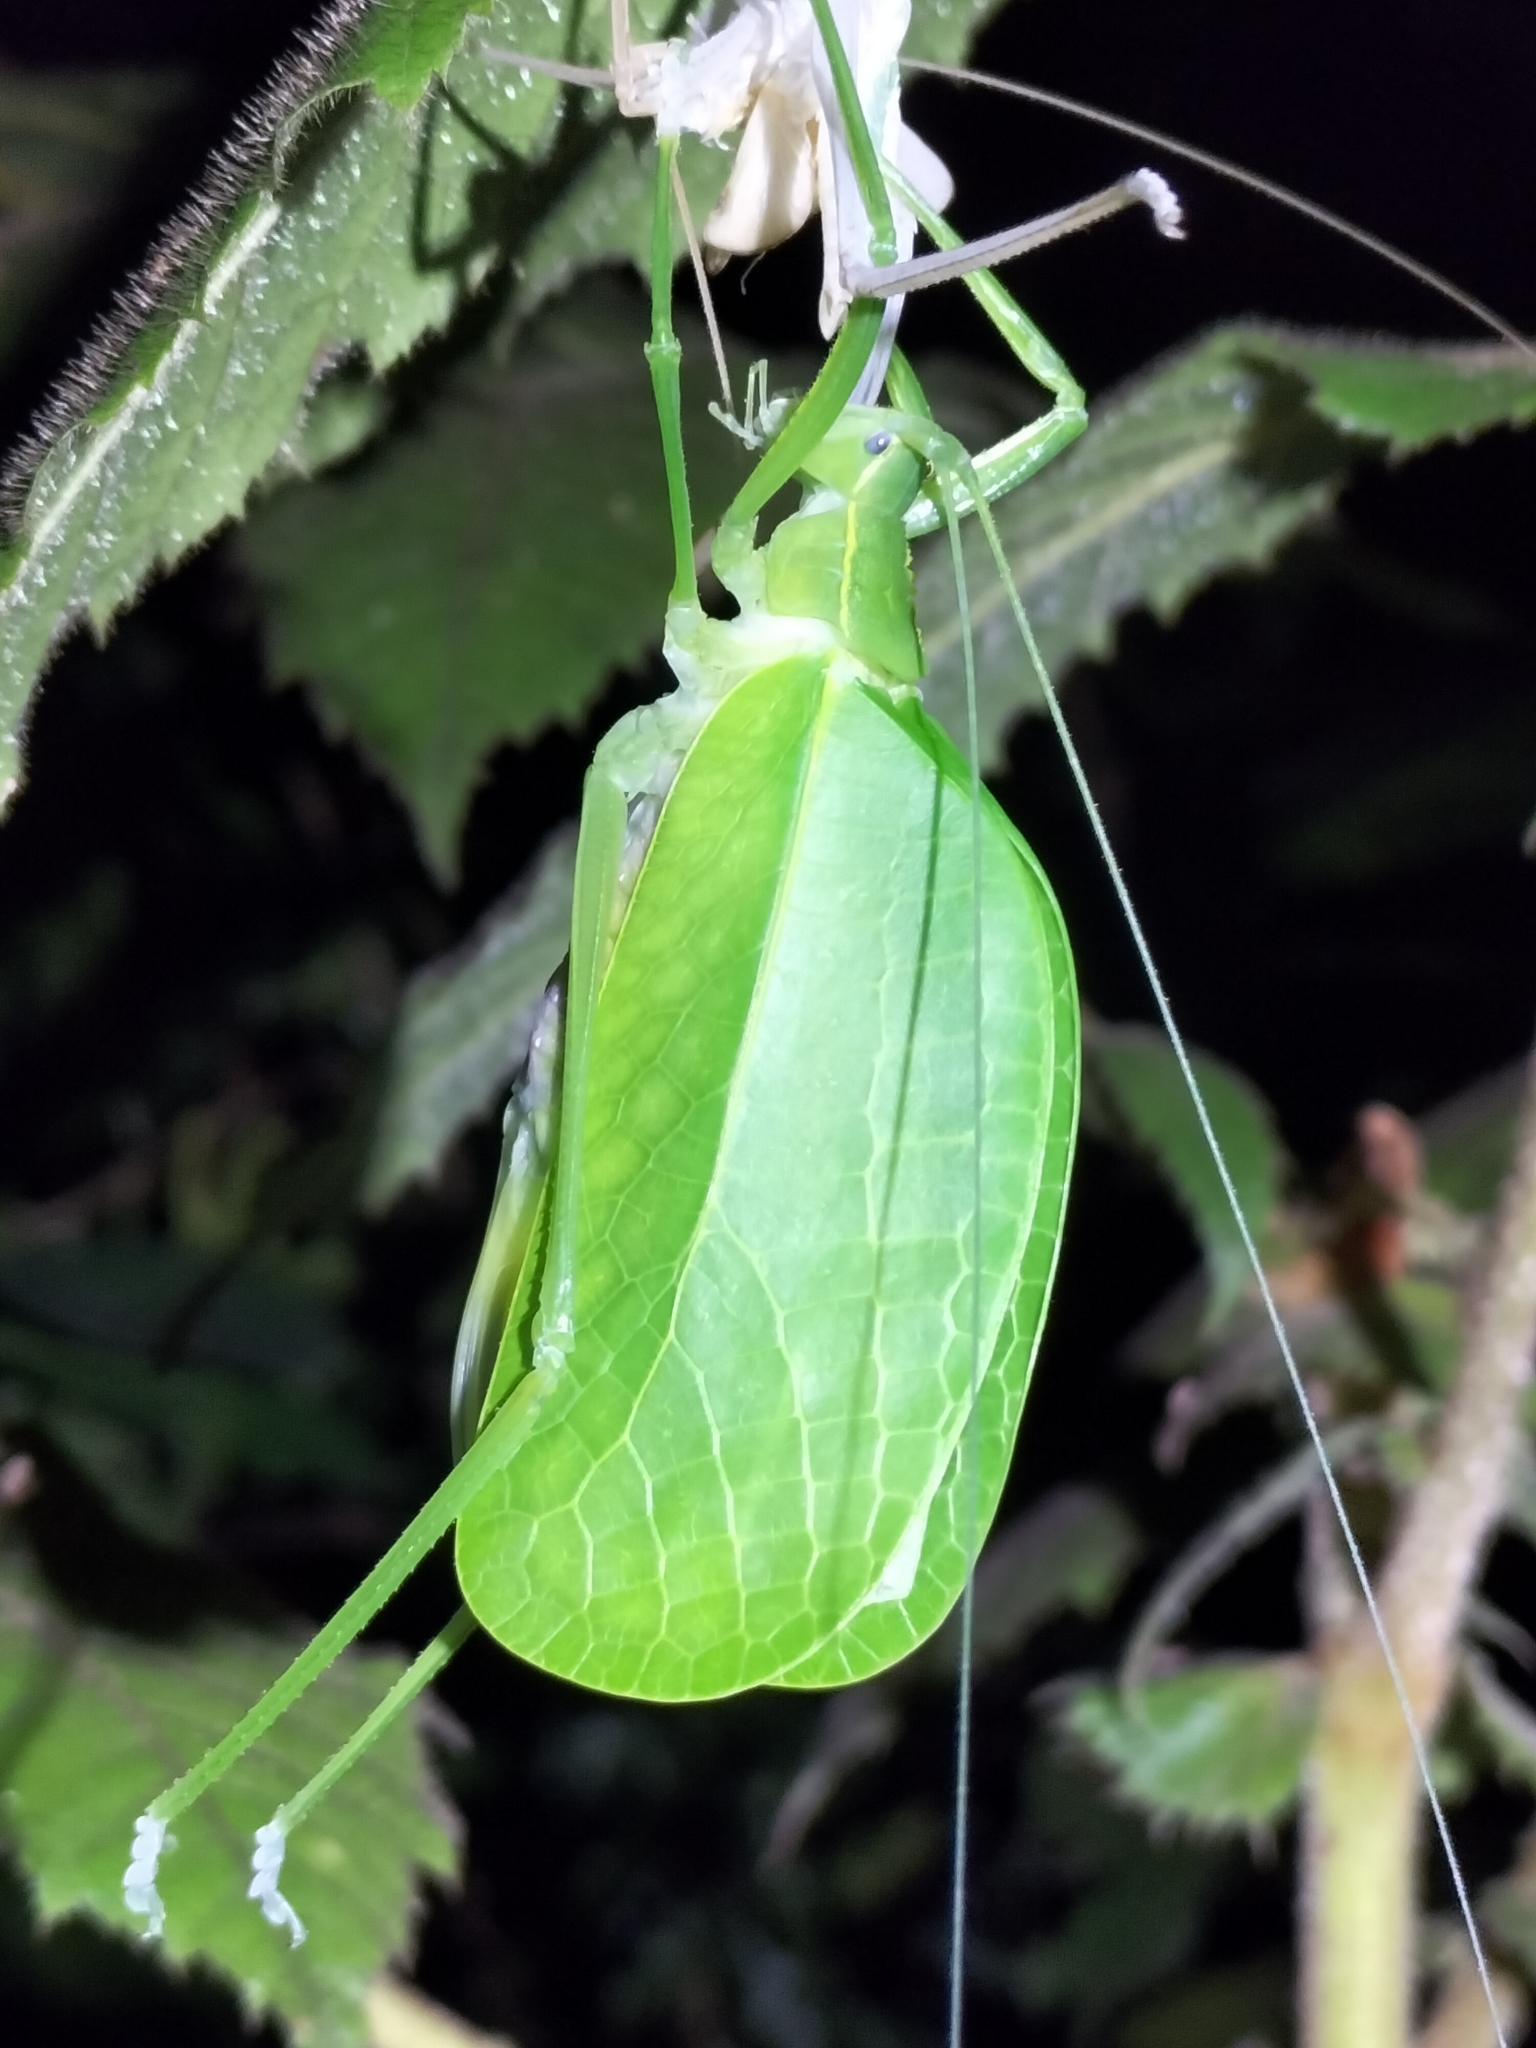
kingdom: Animalia
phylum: Arthropoda
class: Insecta
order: Orthoptera
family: Tettigoniidae
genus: Mastighaphoides
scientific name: Mastighaphoides tuberculatus
